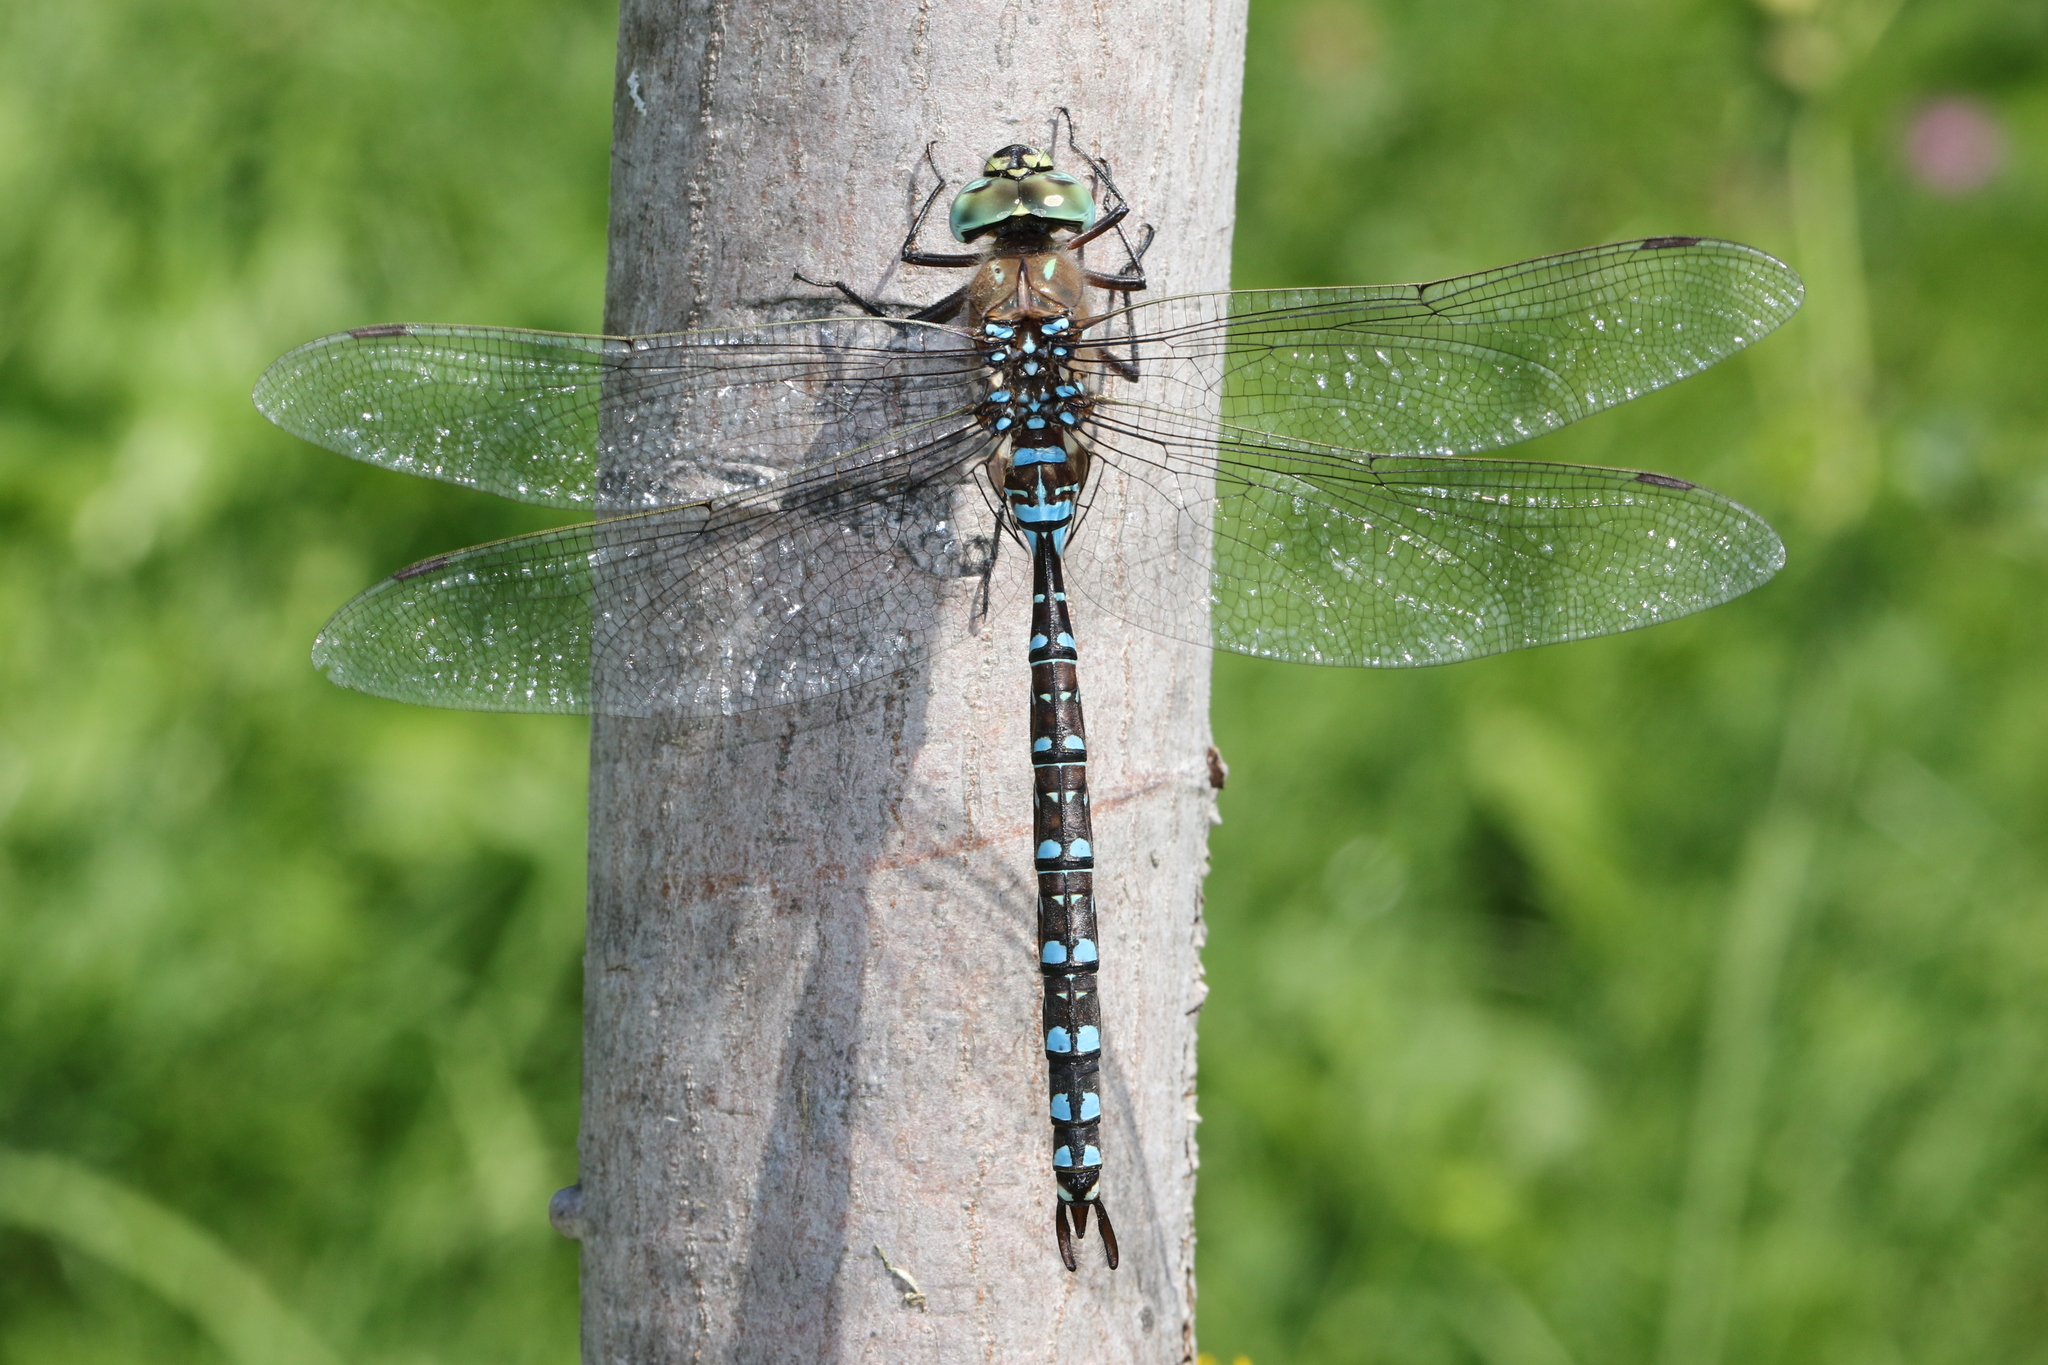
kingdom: Animalia
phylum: Arthropoda
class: Insecta
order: Odonata
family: Aeshnidae
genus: Aeshna
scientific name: Aeshna interrupta
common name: Variable darner
